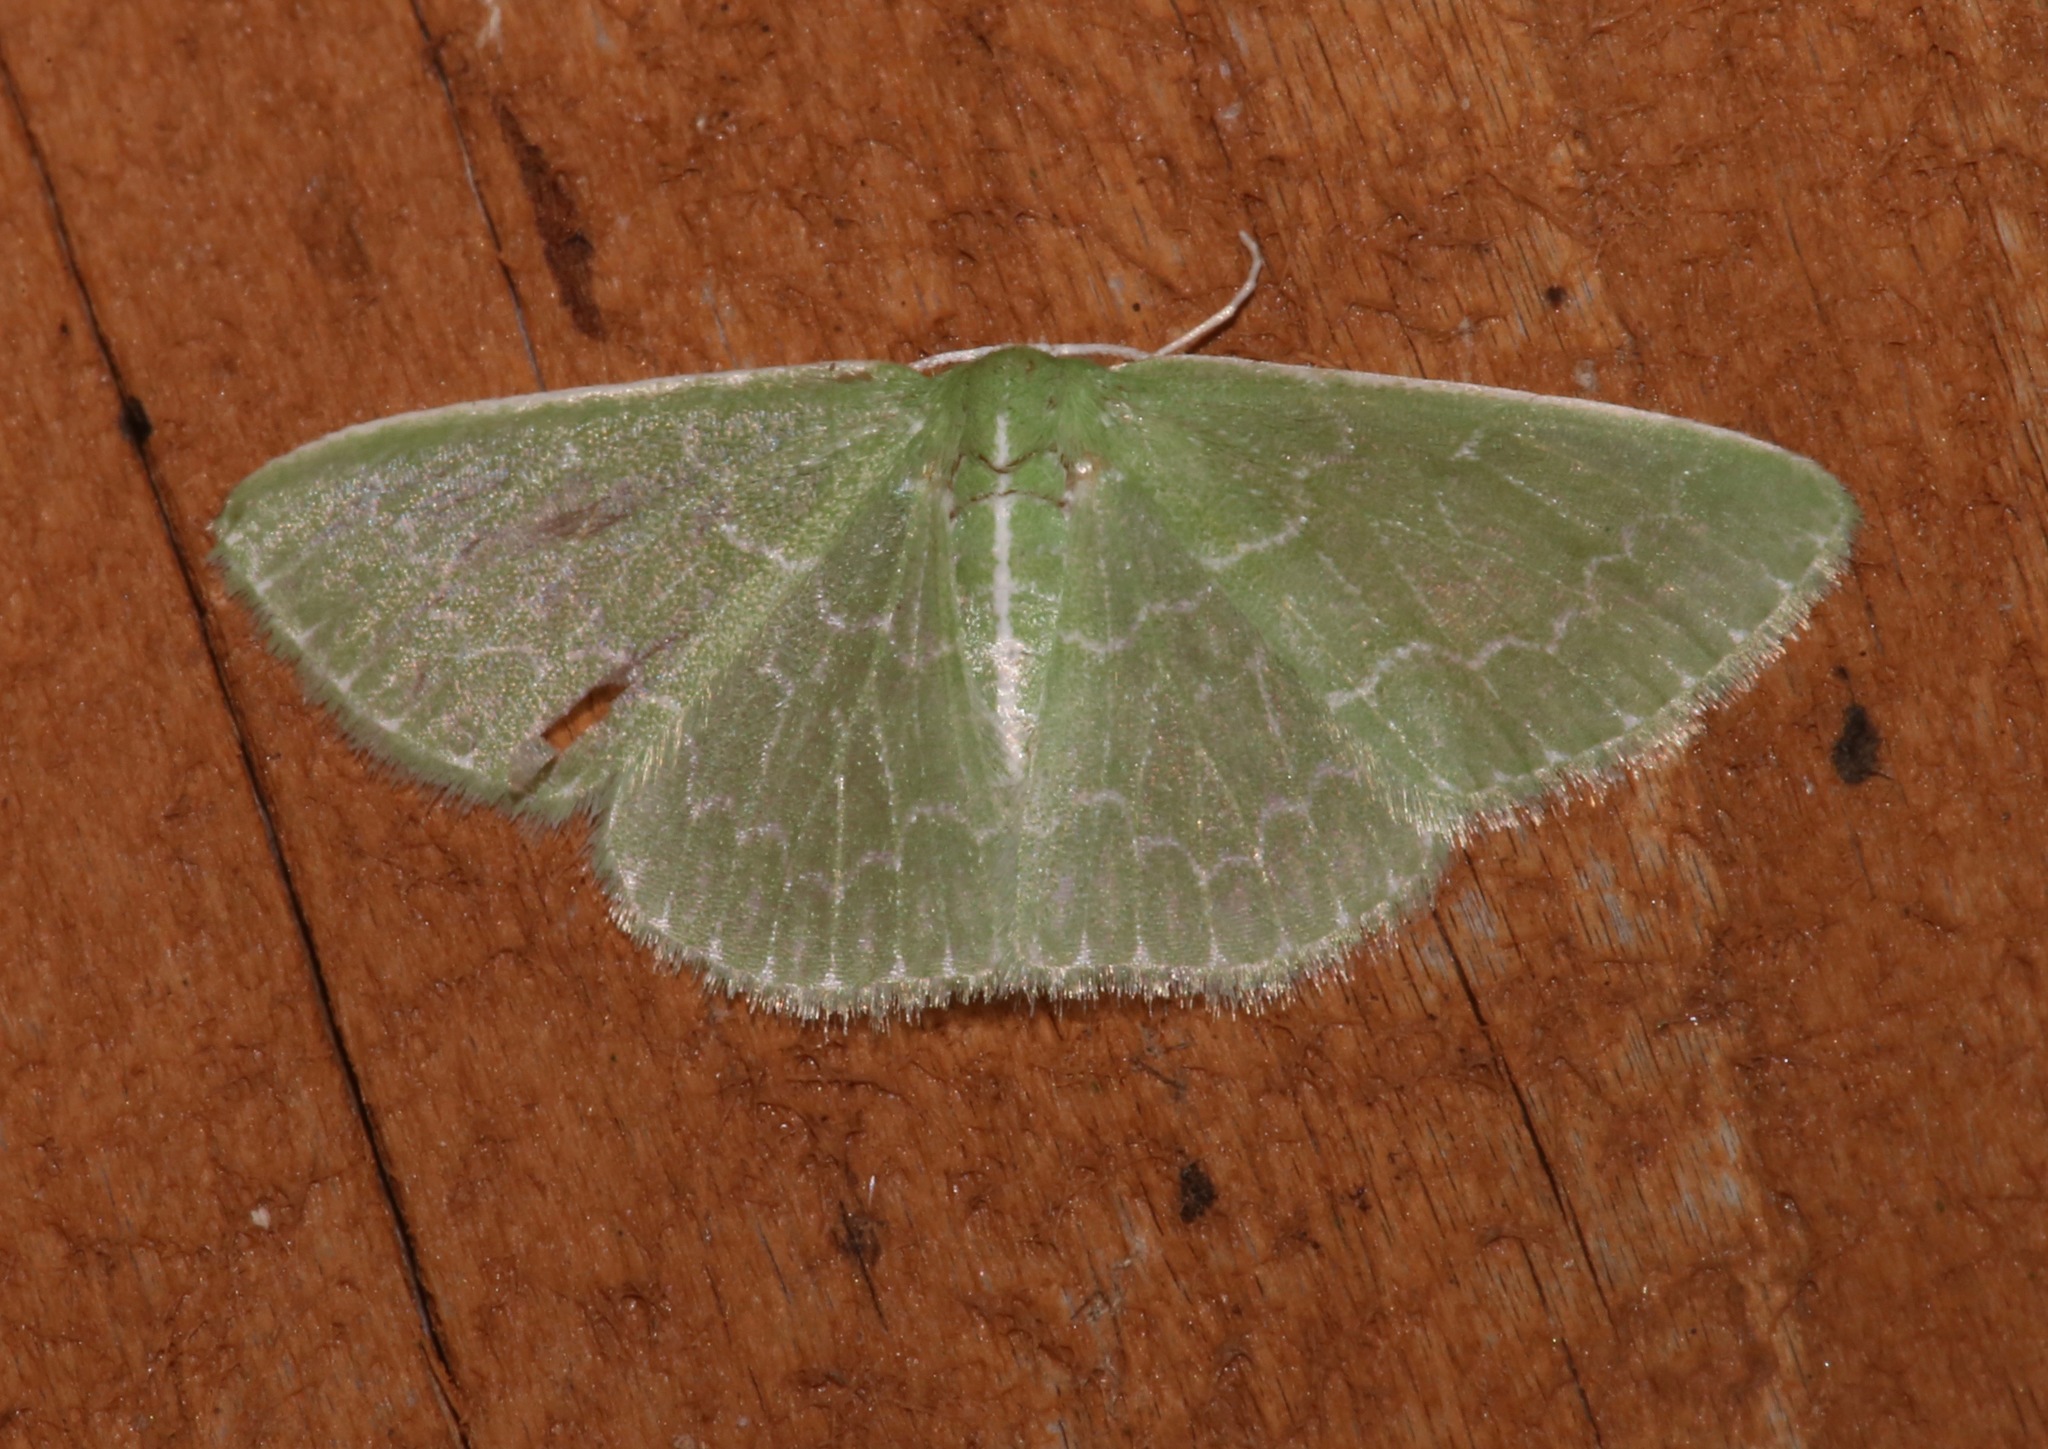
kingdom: Animalia
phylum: Arthropoda
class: Insecta
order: Lepidoptera
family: Geometridae
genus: Synchlora
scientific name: Synchlora frondaria
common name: Southern emerald
